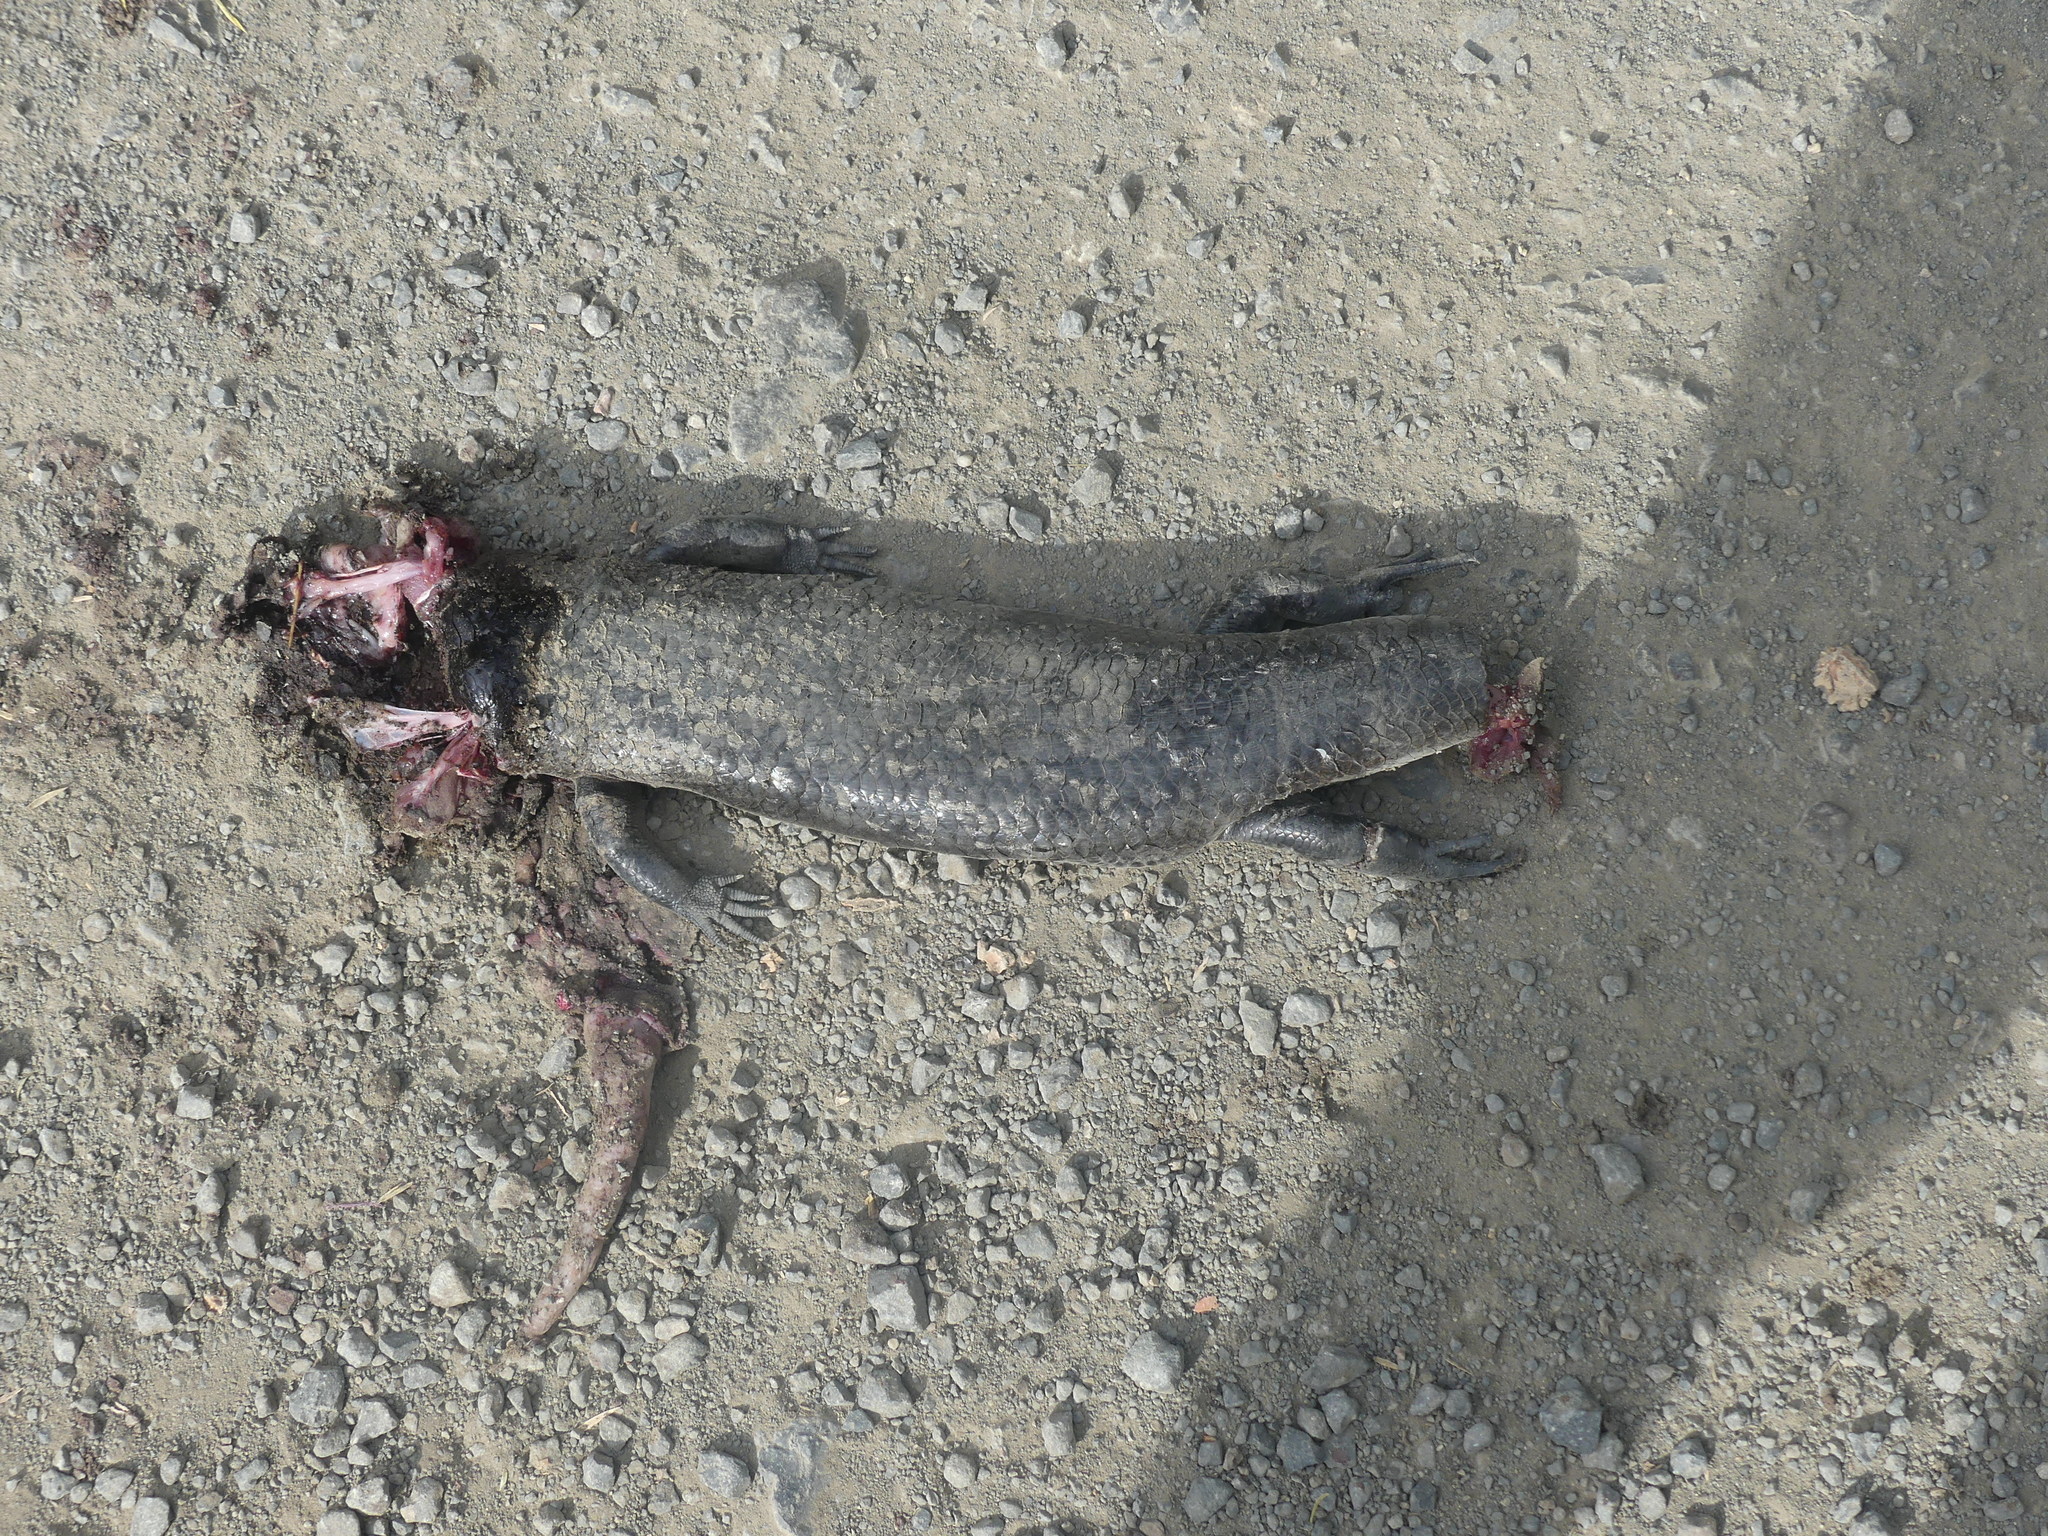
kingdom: Animalia
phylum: Chordata
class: Squamata
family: Scincidae
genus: Bellatorias
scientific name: Bellatorias major
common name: Land mullet
